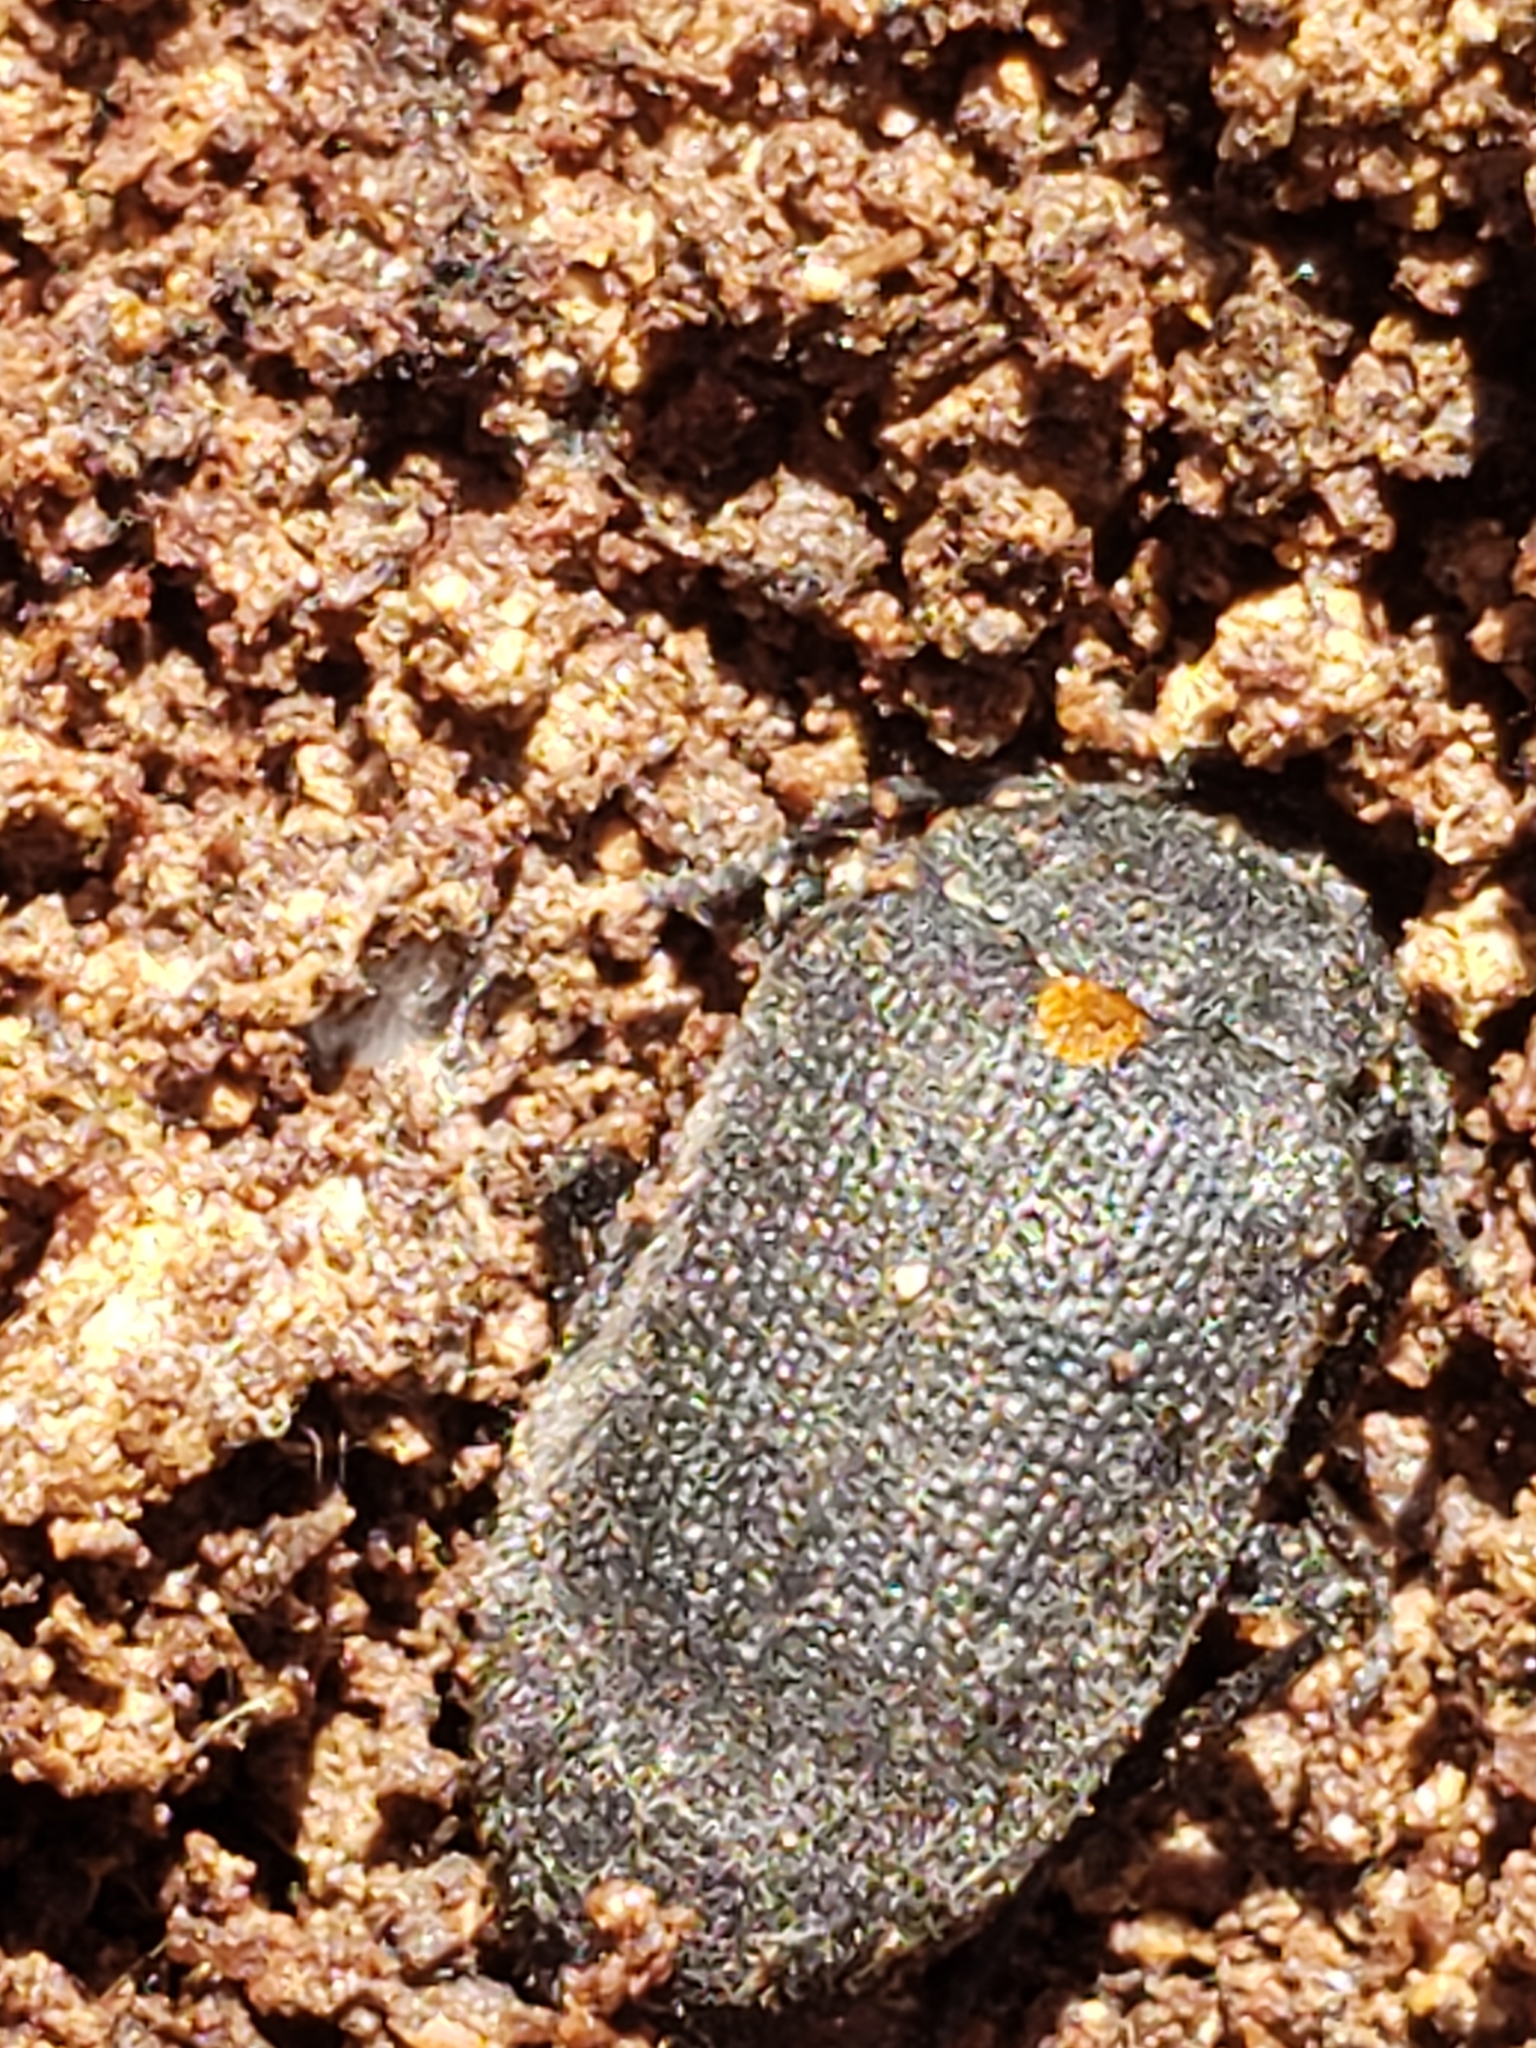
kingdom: Animalia
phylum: Arthropoda
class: Insecta
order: Coleoptera
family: Tetratomidae
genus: Penthe
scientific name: Penthe obliquata
